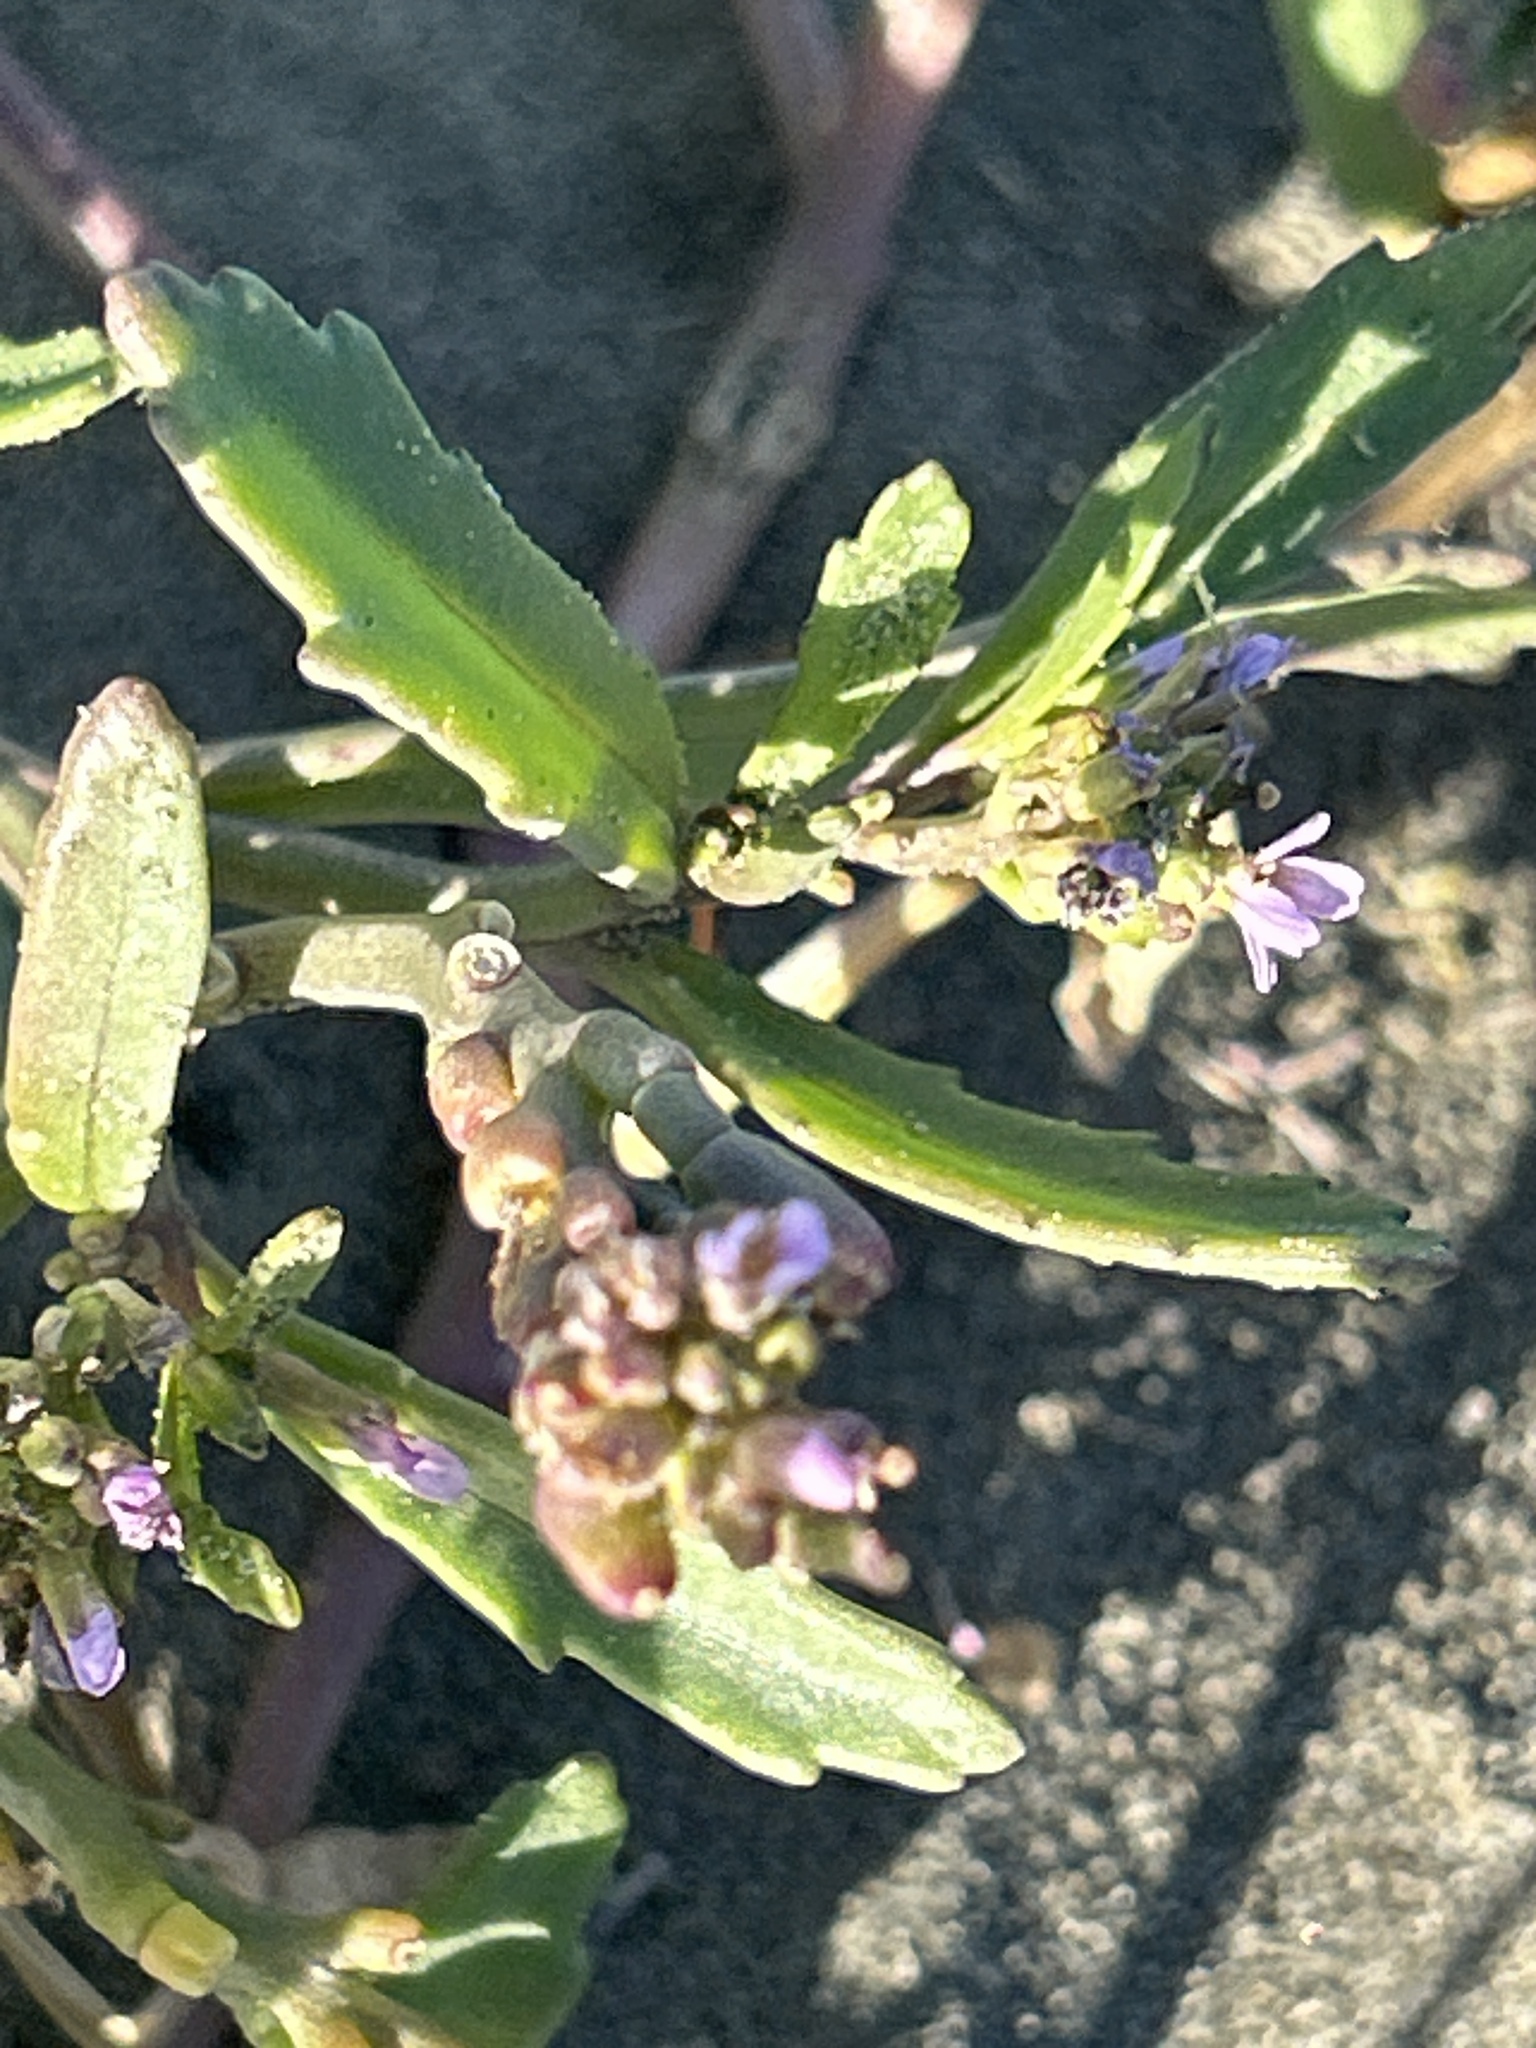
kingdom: Plantae
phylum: Tracheophyta
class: Magnoliopsida
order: Brassicales
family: Brassicaceae
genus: Cakile
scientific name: Cakile edentula
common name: American sea rocket
